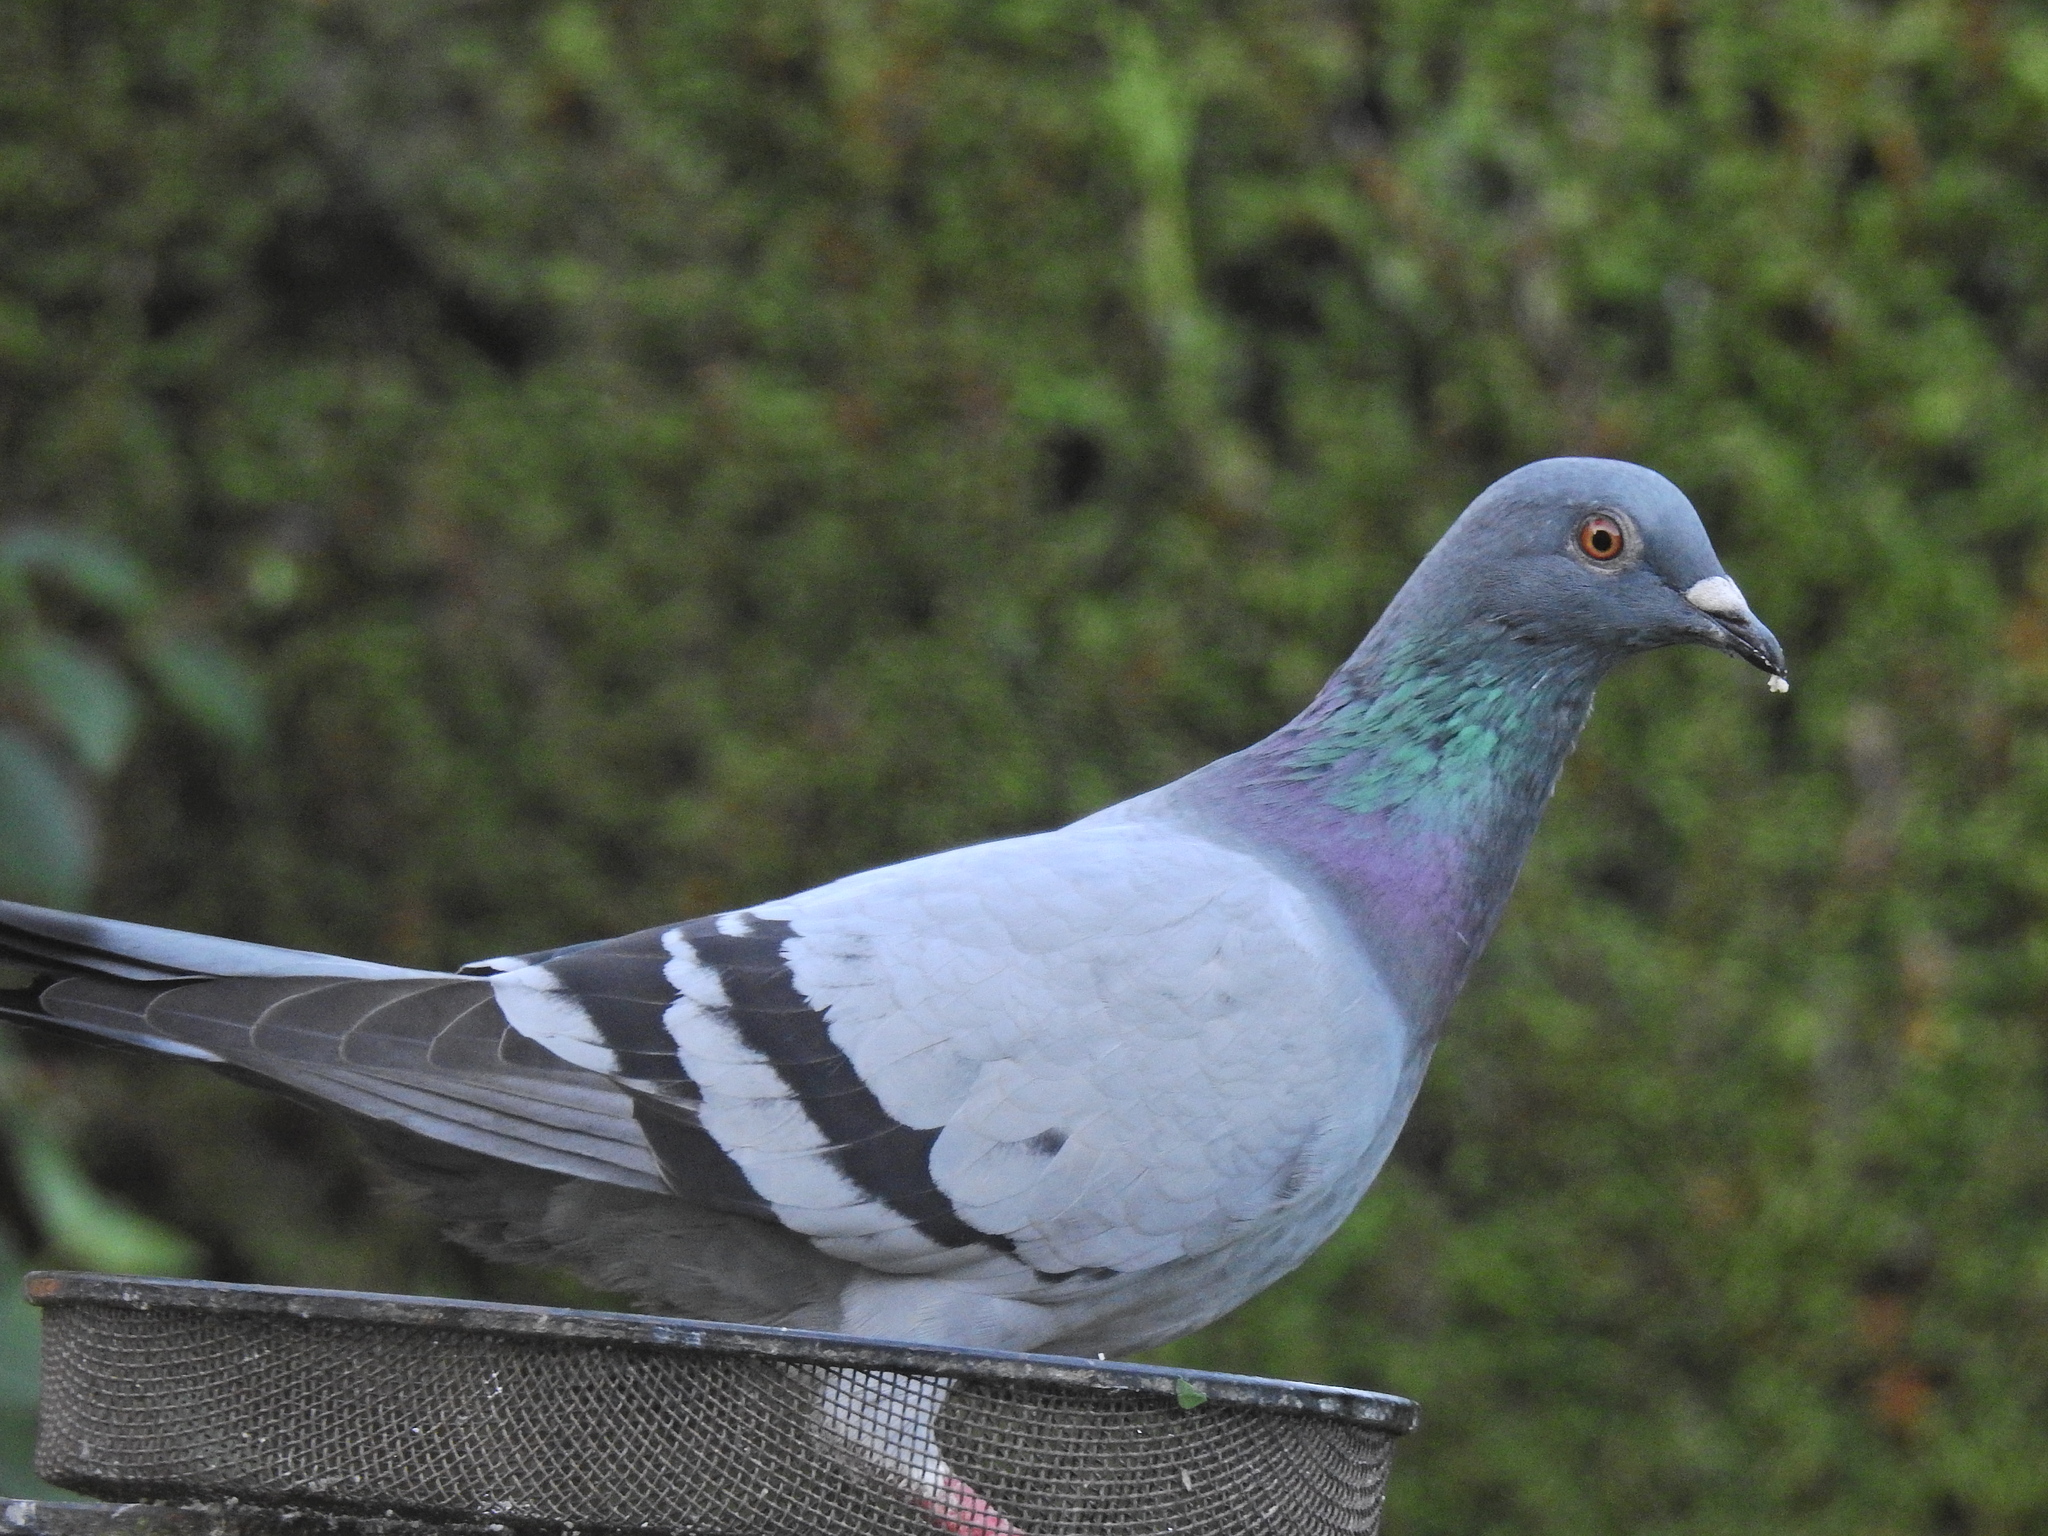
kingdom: Animalia
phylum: Chordata
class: Aves
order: Columbiformes
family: Columbidae
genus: Columba
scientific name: Columba livia
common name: Rock pigeon
